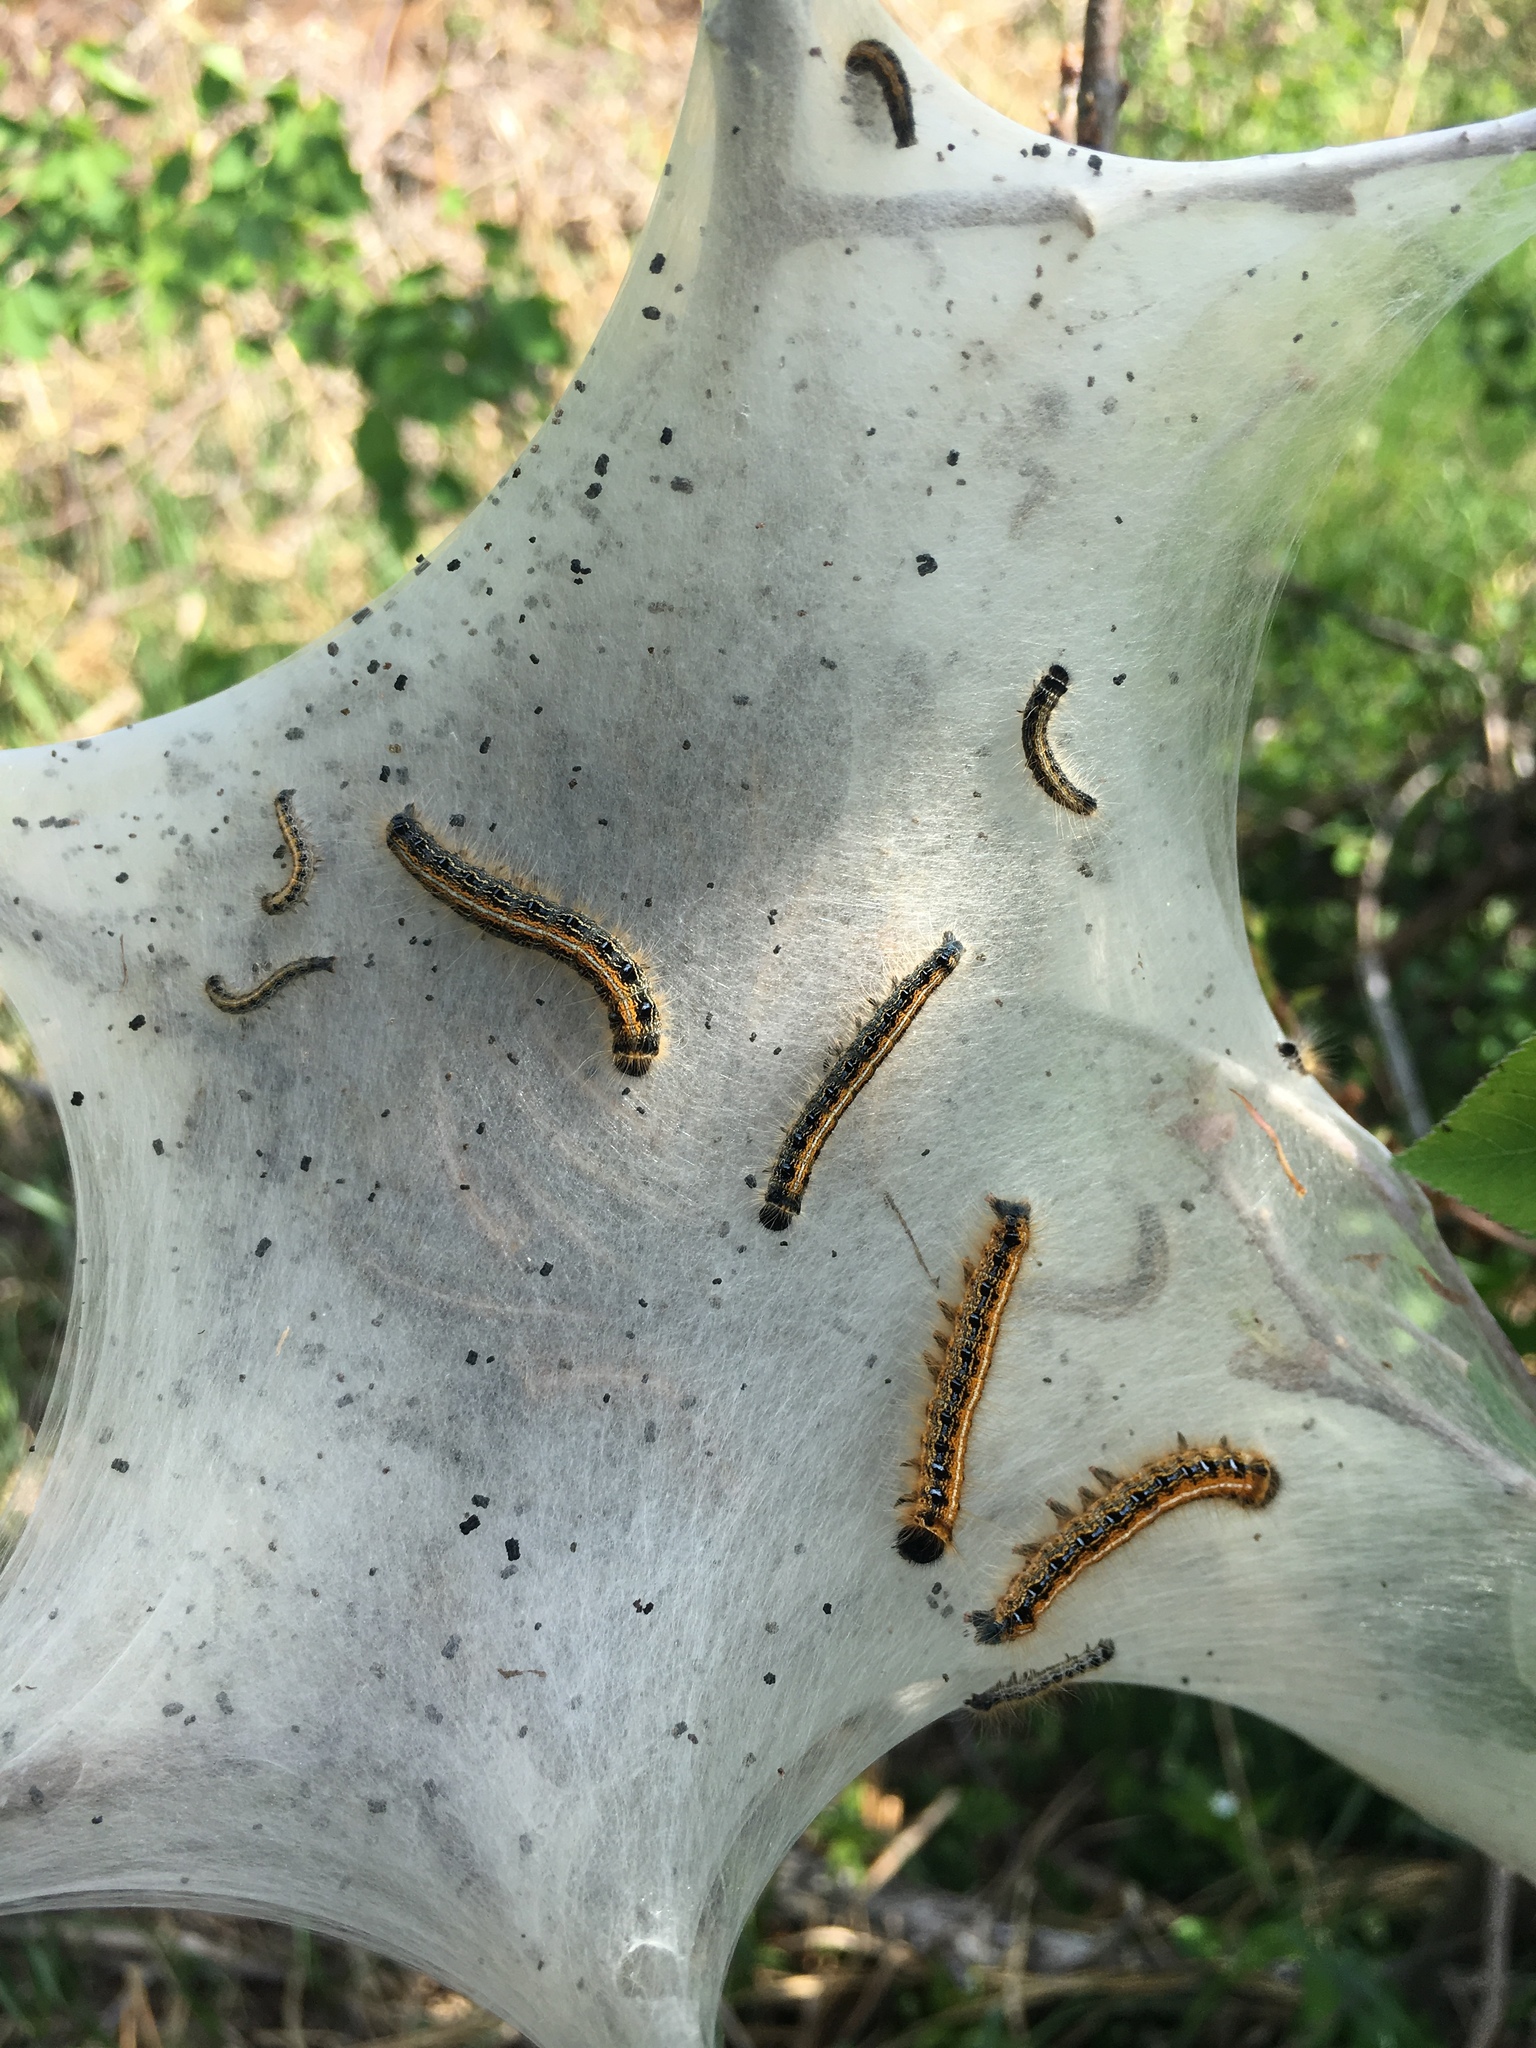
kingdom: Animalia
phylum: Arthropoda
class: Insecta
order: Lepidoptera
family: Lasiocampidae
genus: Malacosoma
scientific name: Malacosoma americana
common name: Eastern tent caterpillar moth
